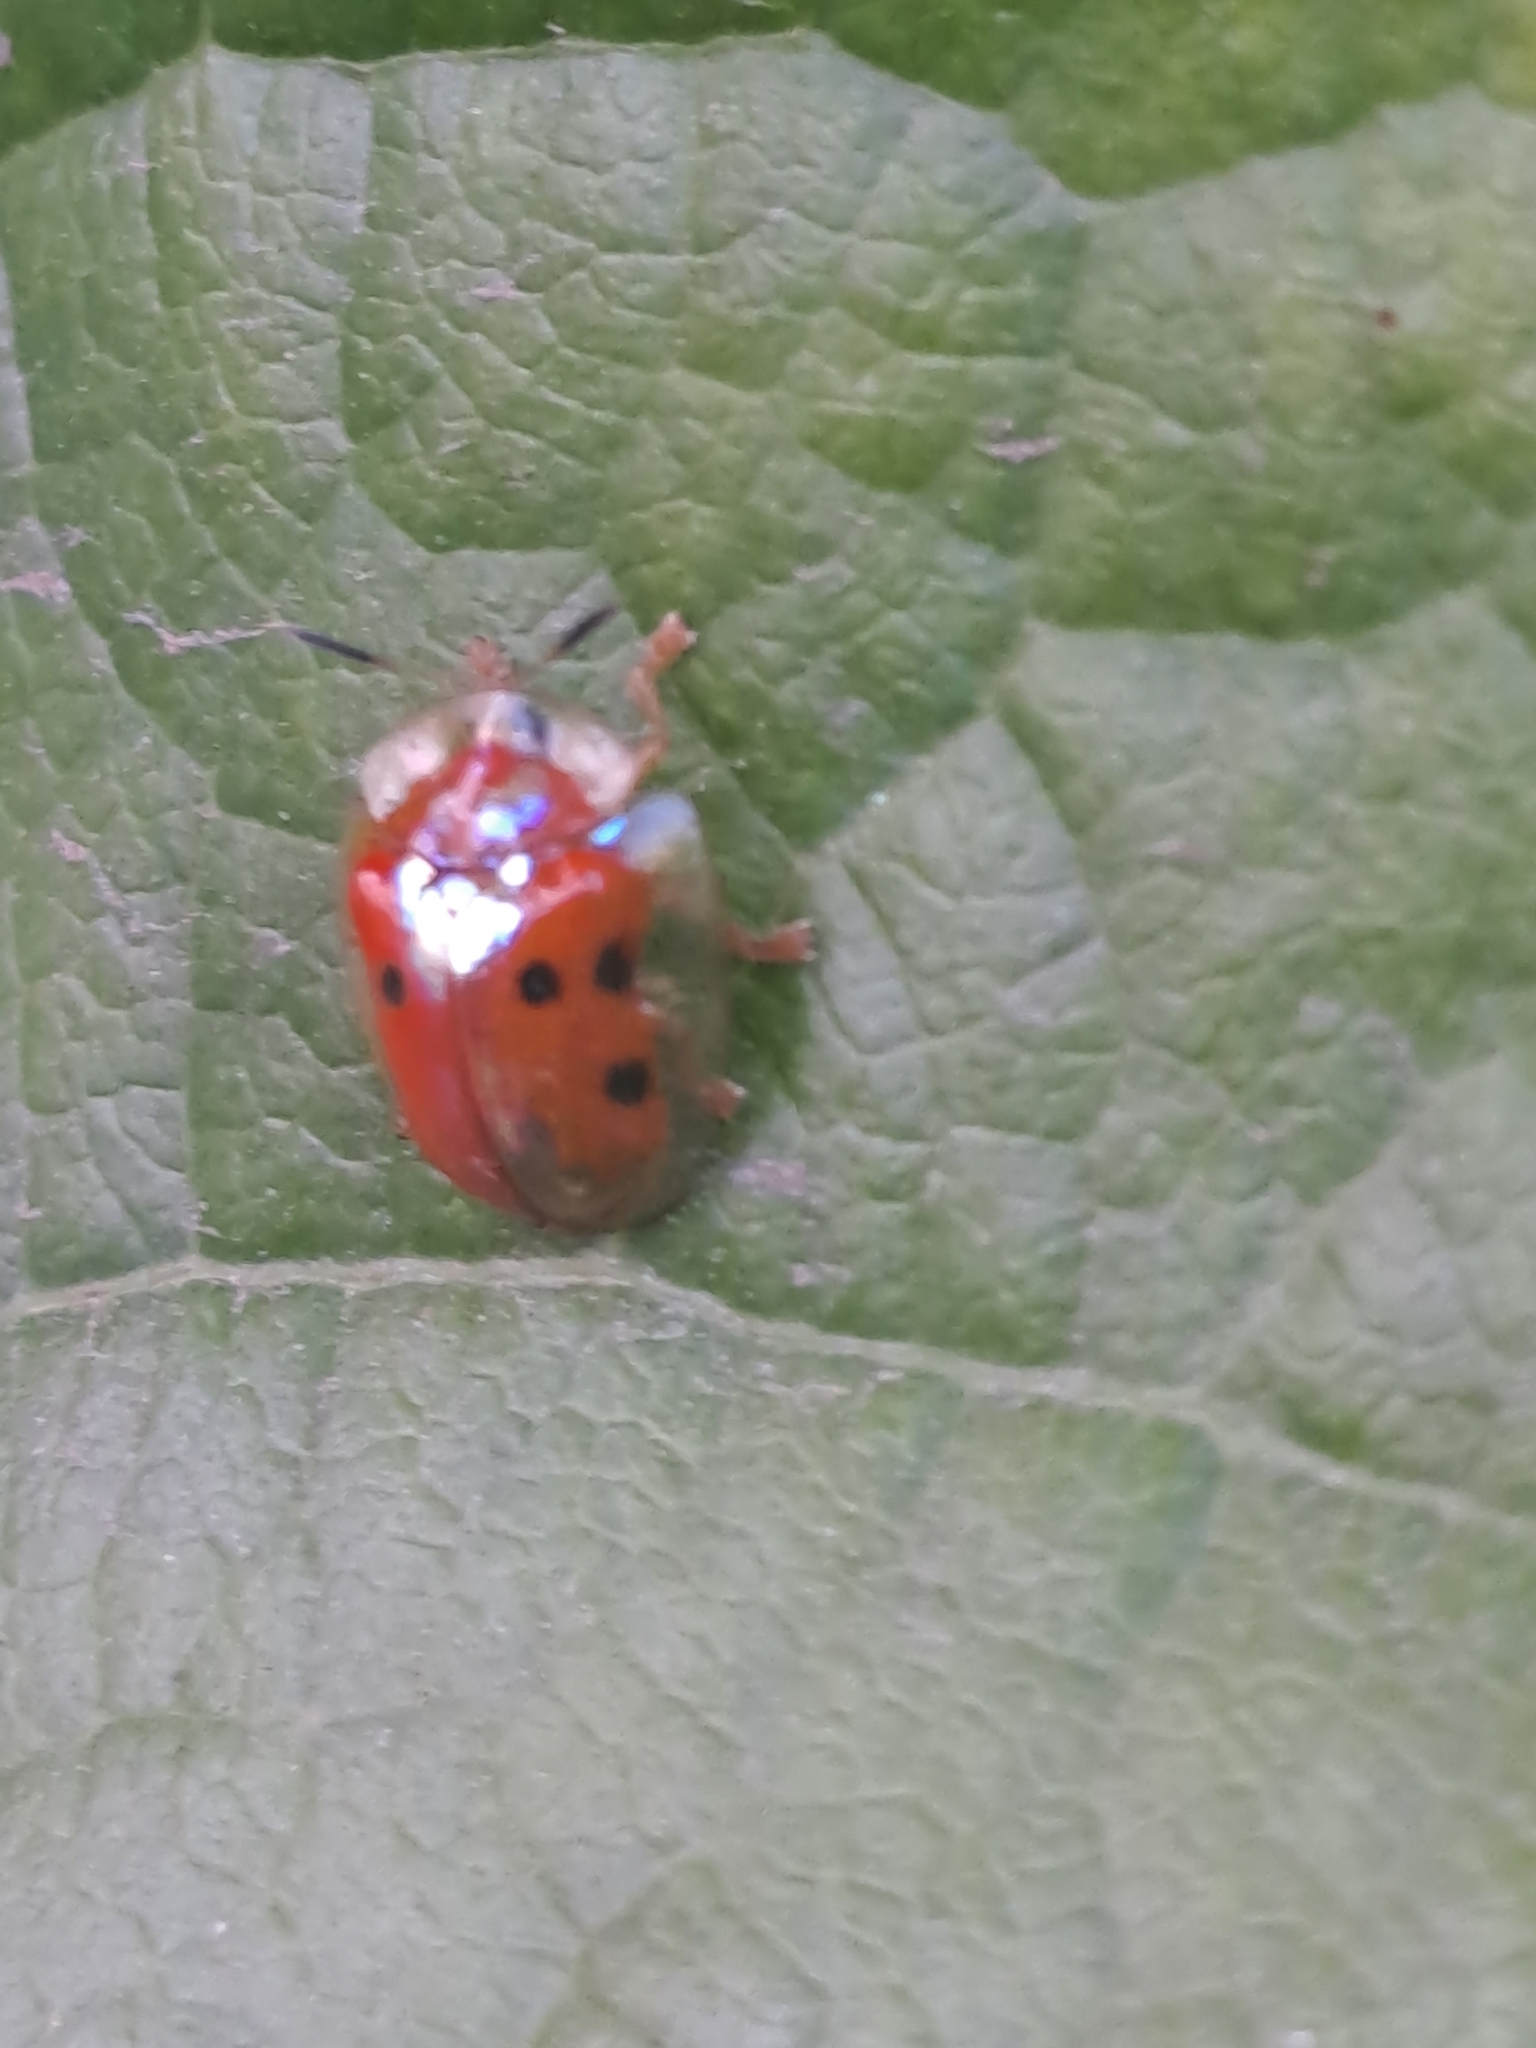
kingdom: Animalia
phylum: Arthropoda
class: Insecta
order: Coleoptera
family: Chrysomelidae
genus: Charidotella
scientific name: Charidotella sexpunctata
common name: Golden tortoise beetle
